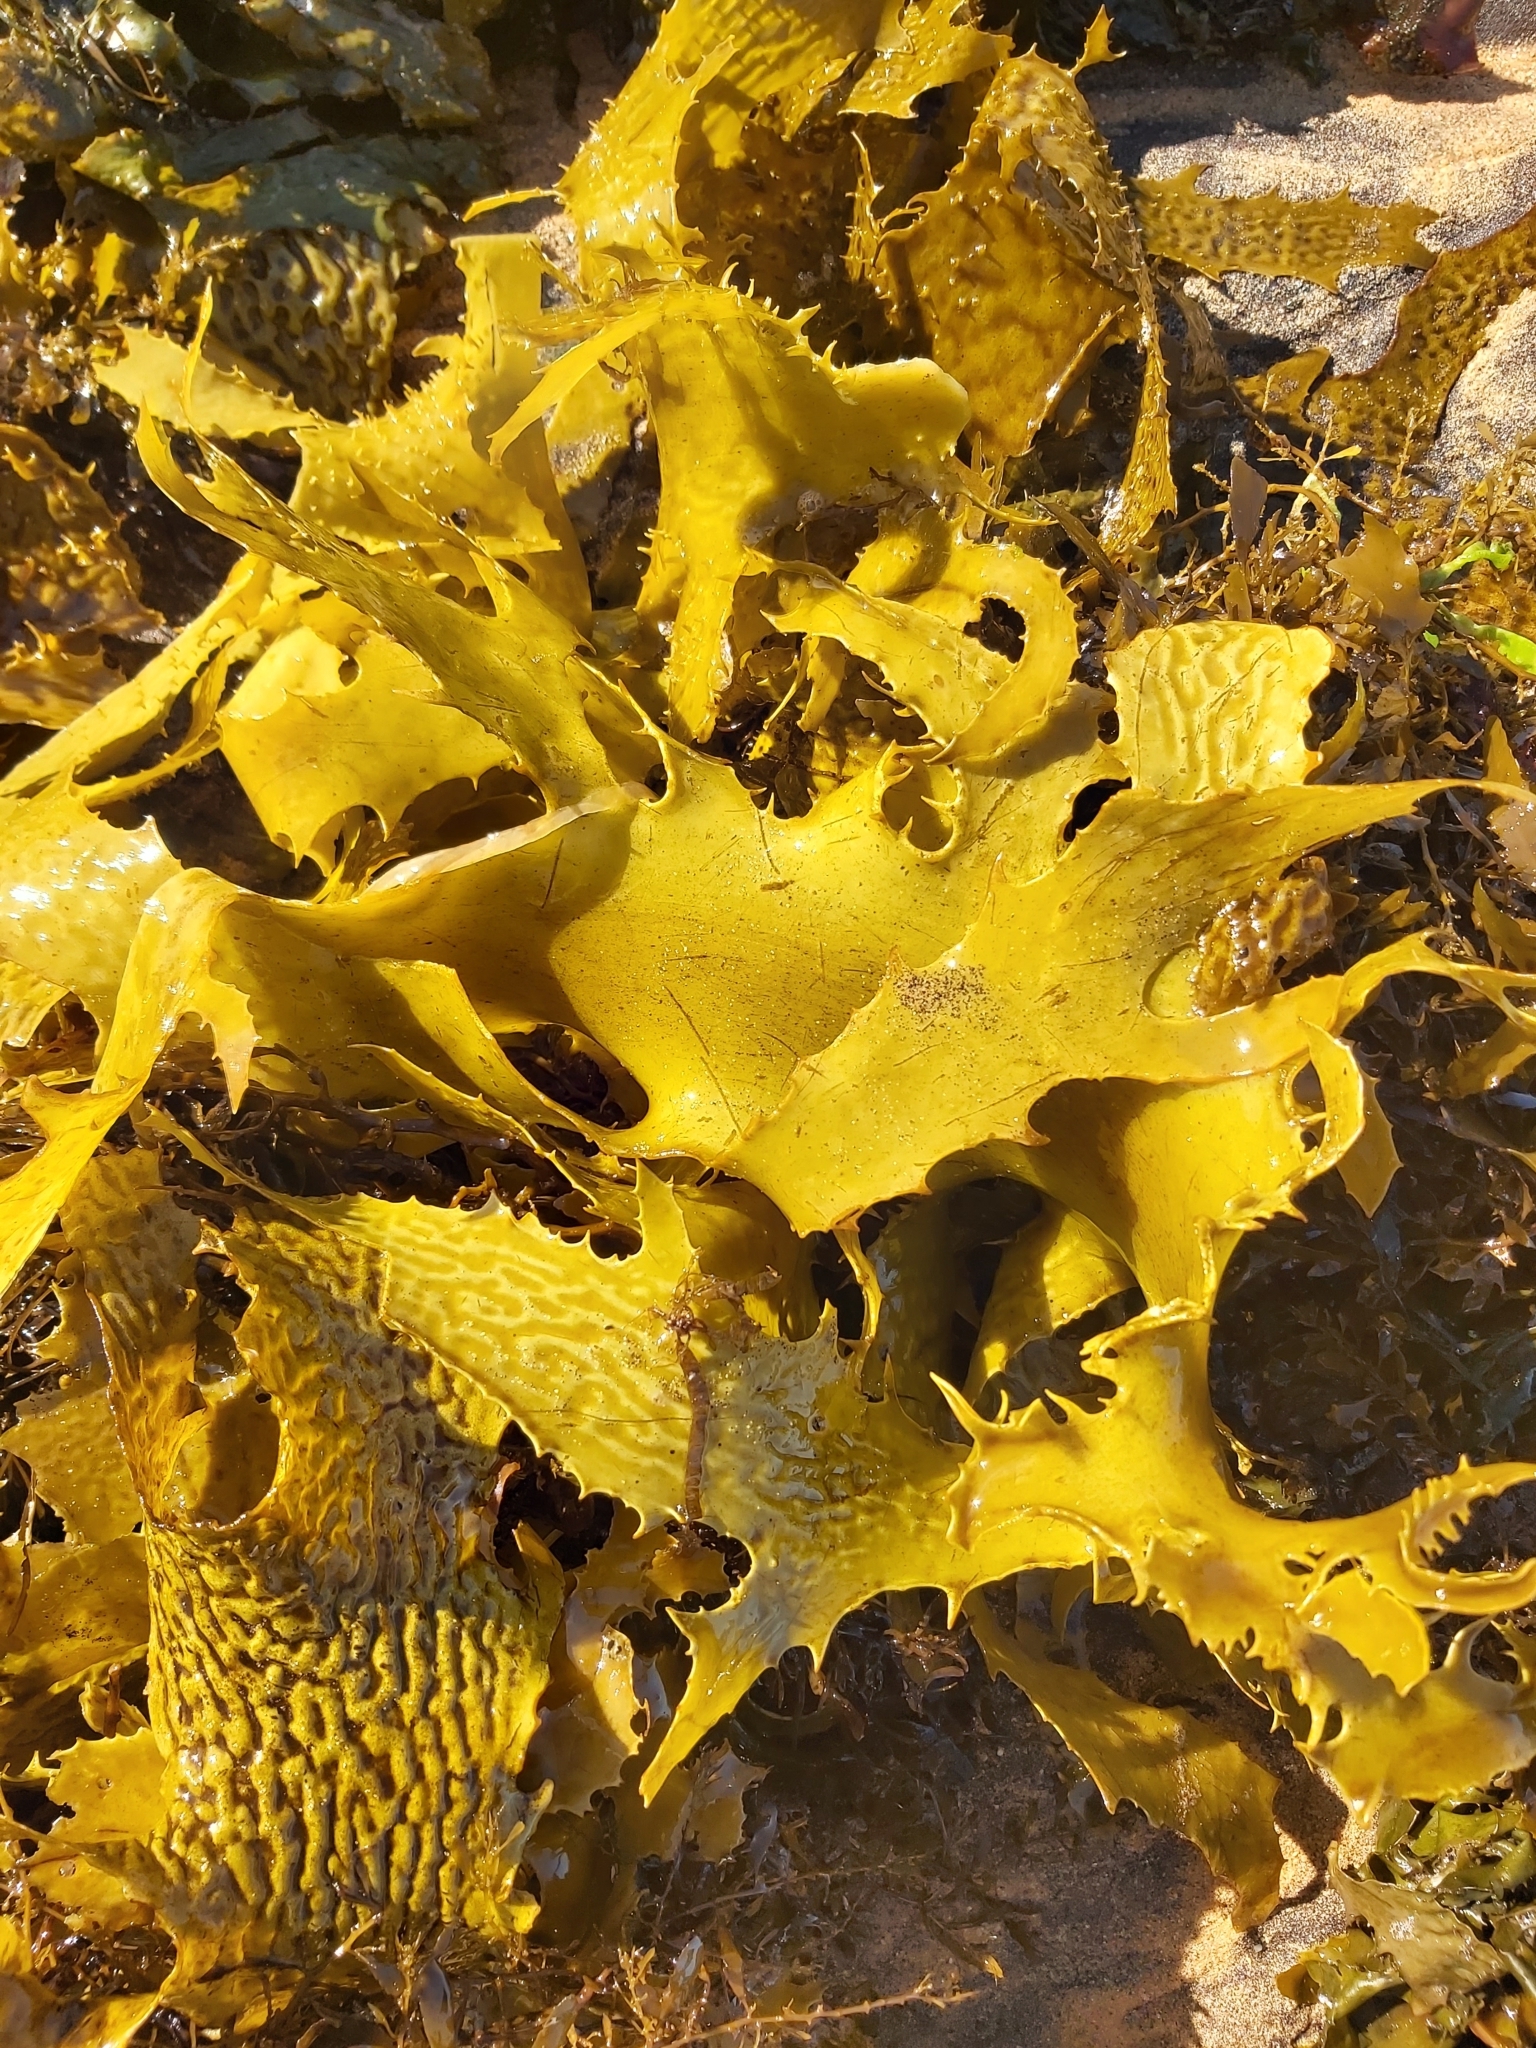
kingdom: Chromista
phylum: Ochrophyta
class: Phaeophyceae
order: Laminariales
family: Lessoniaceae
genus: Ecklonia
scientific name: Ecklonia radiata
